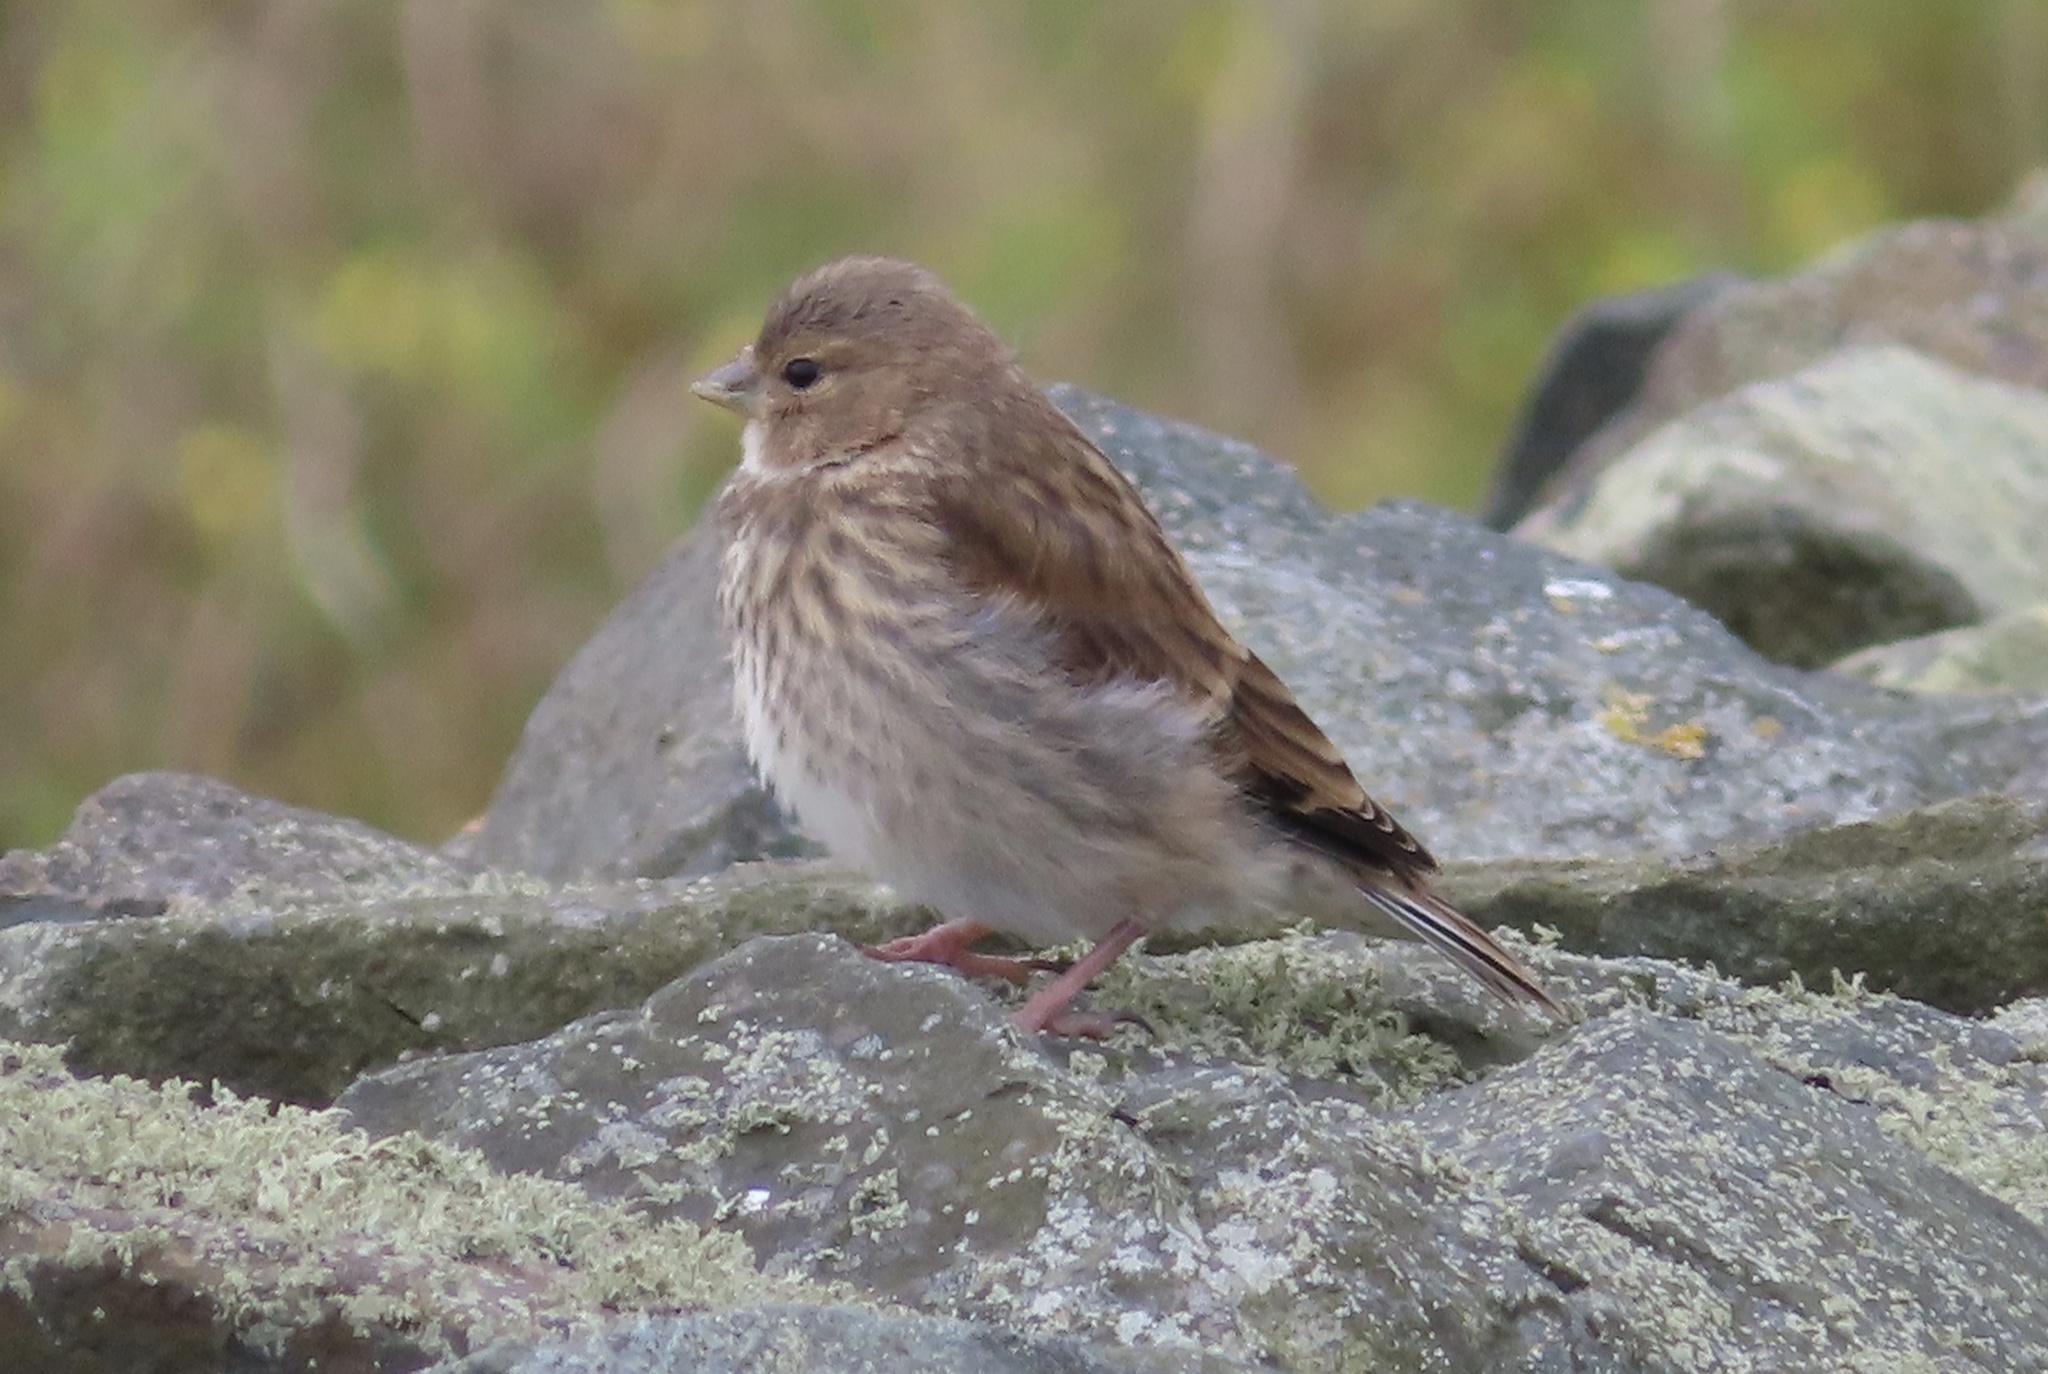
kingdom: Animalia
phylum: Chordata
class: Aves
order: Passeriformes
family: Fringillidae
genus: Linaria
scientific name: Linaria cannabina
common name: Common linnet
